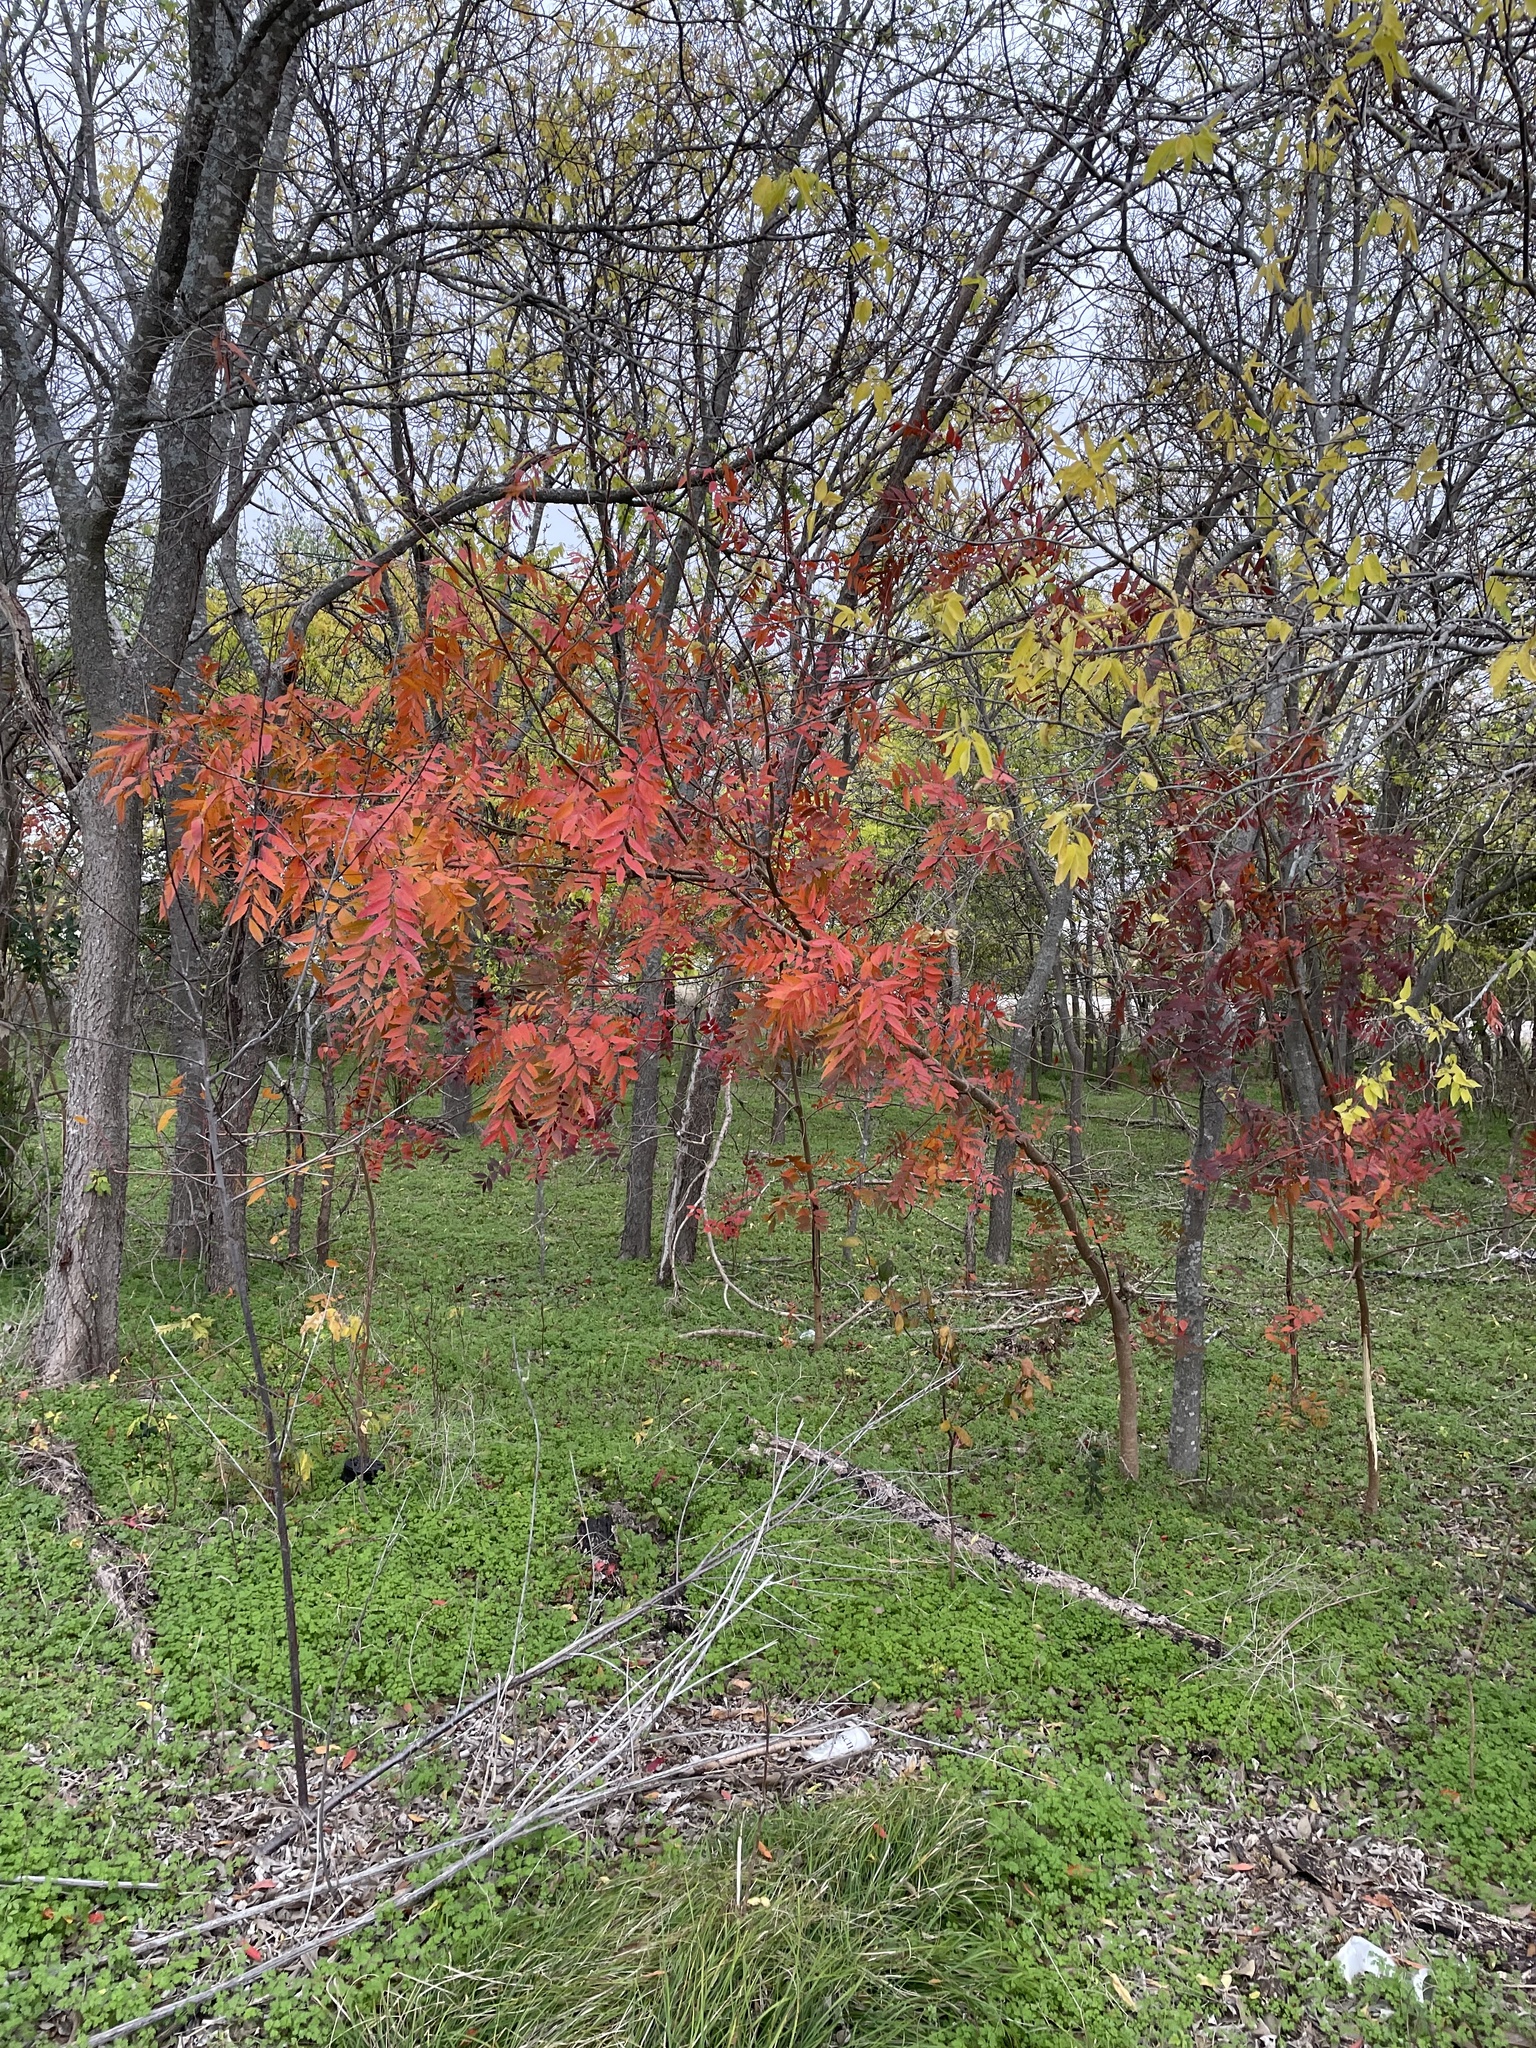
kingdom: Plantae
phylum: Tracheophyta
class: Magnoliopsida
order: Sapindales
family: Anacardiaceae
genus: Pistacia
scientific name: Pistacia chinensis
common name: Chinese pistache
